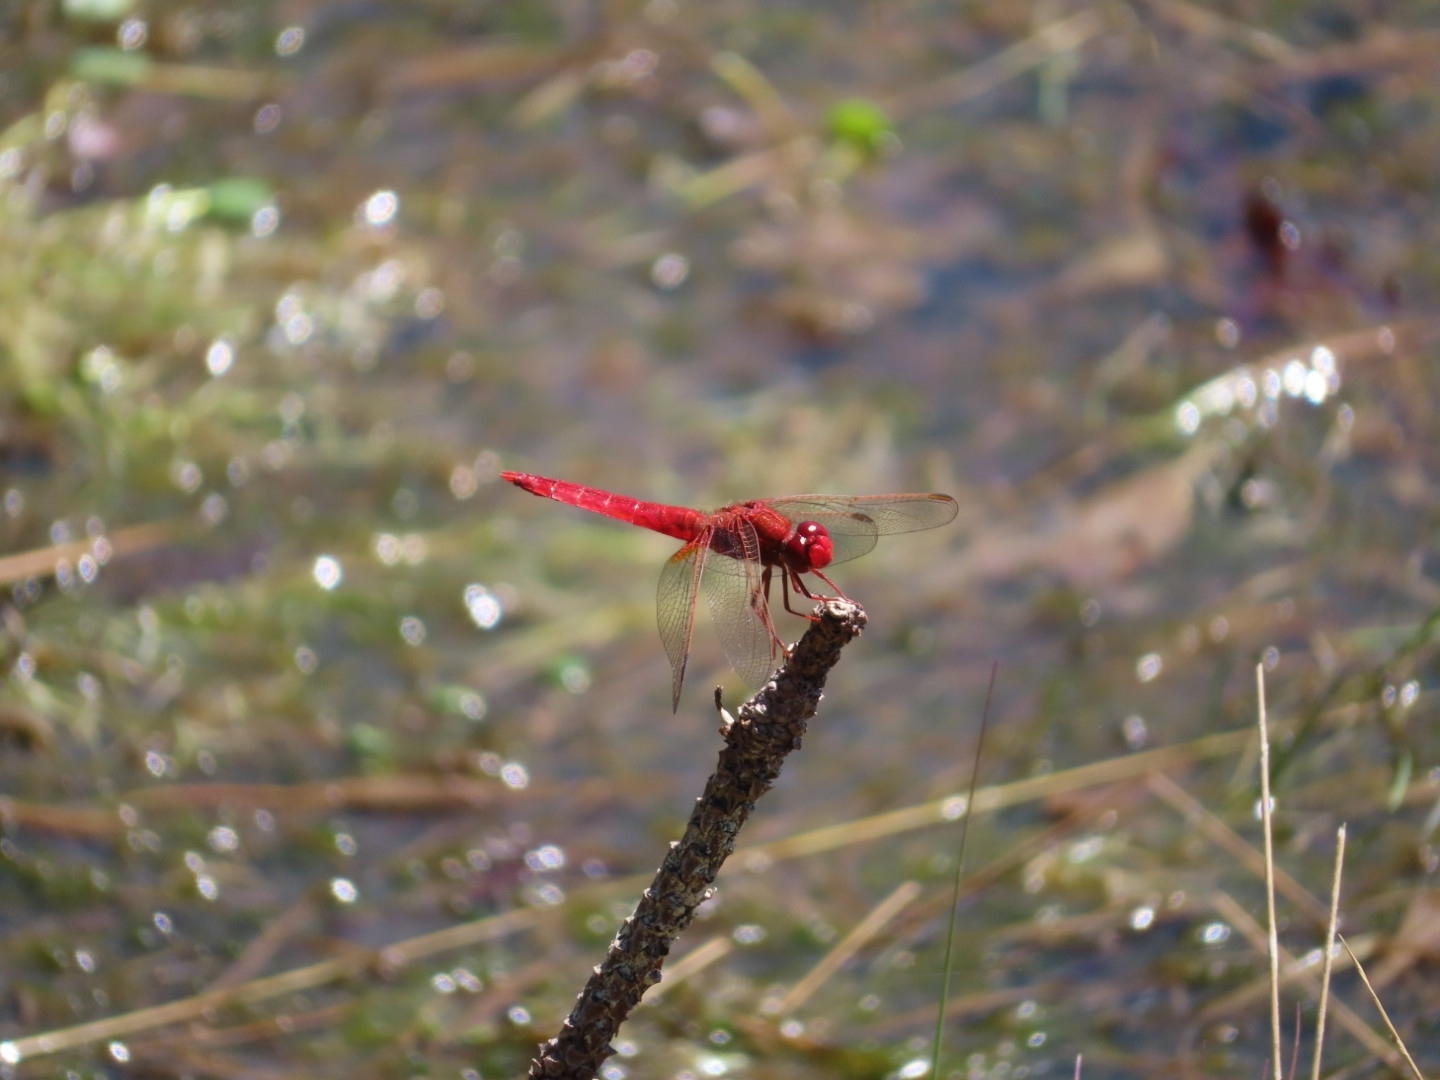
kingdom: Animalia
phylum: Arthropoda
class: Insecta
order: Odonata
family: Libellulidae
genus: Crocothemis
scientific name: Crocothemis erythraea
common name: Scarlet dragonfly
